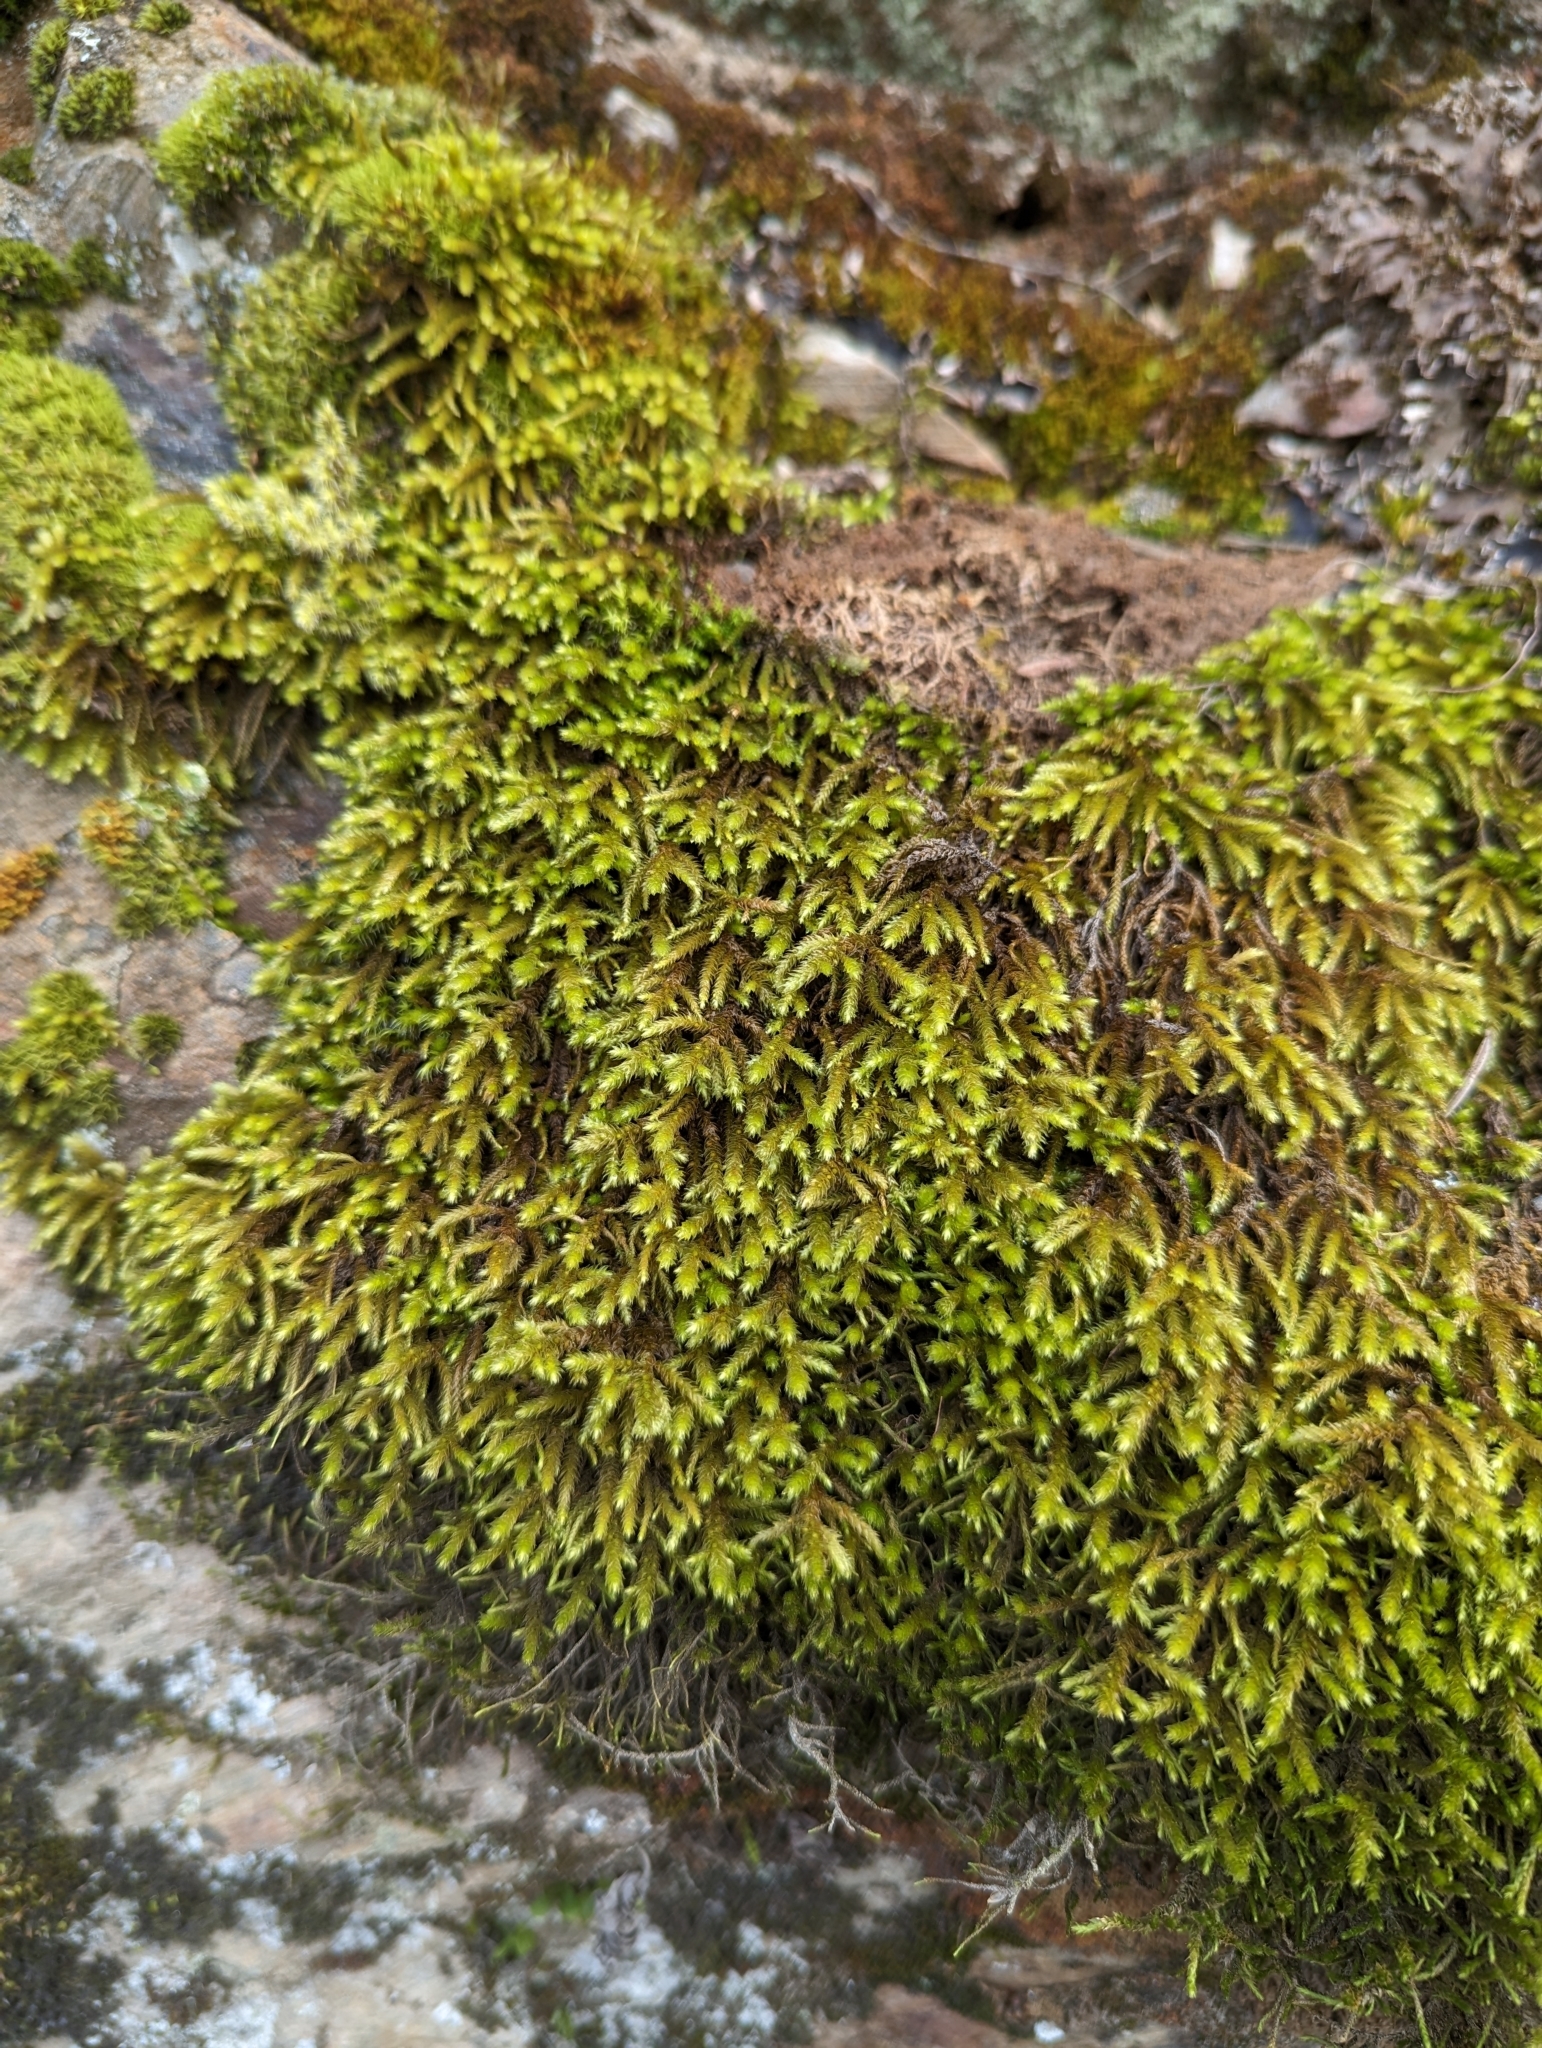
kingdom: Plantae
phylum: Bryophyta
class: Bryopsida
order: Hypnales
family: Antitrichiaceae
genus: Antitrichia
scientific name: Antitrichia californica
